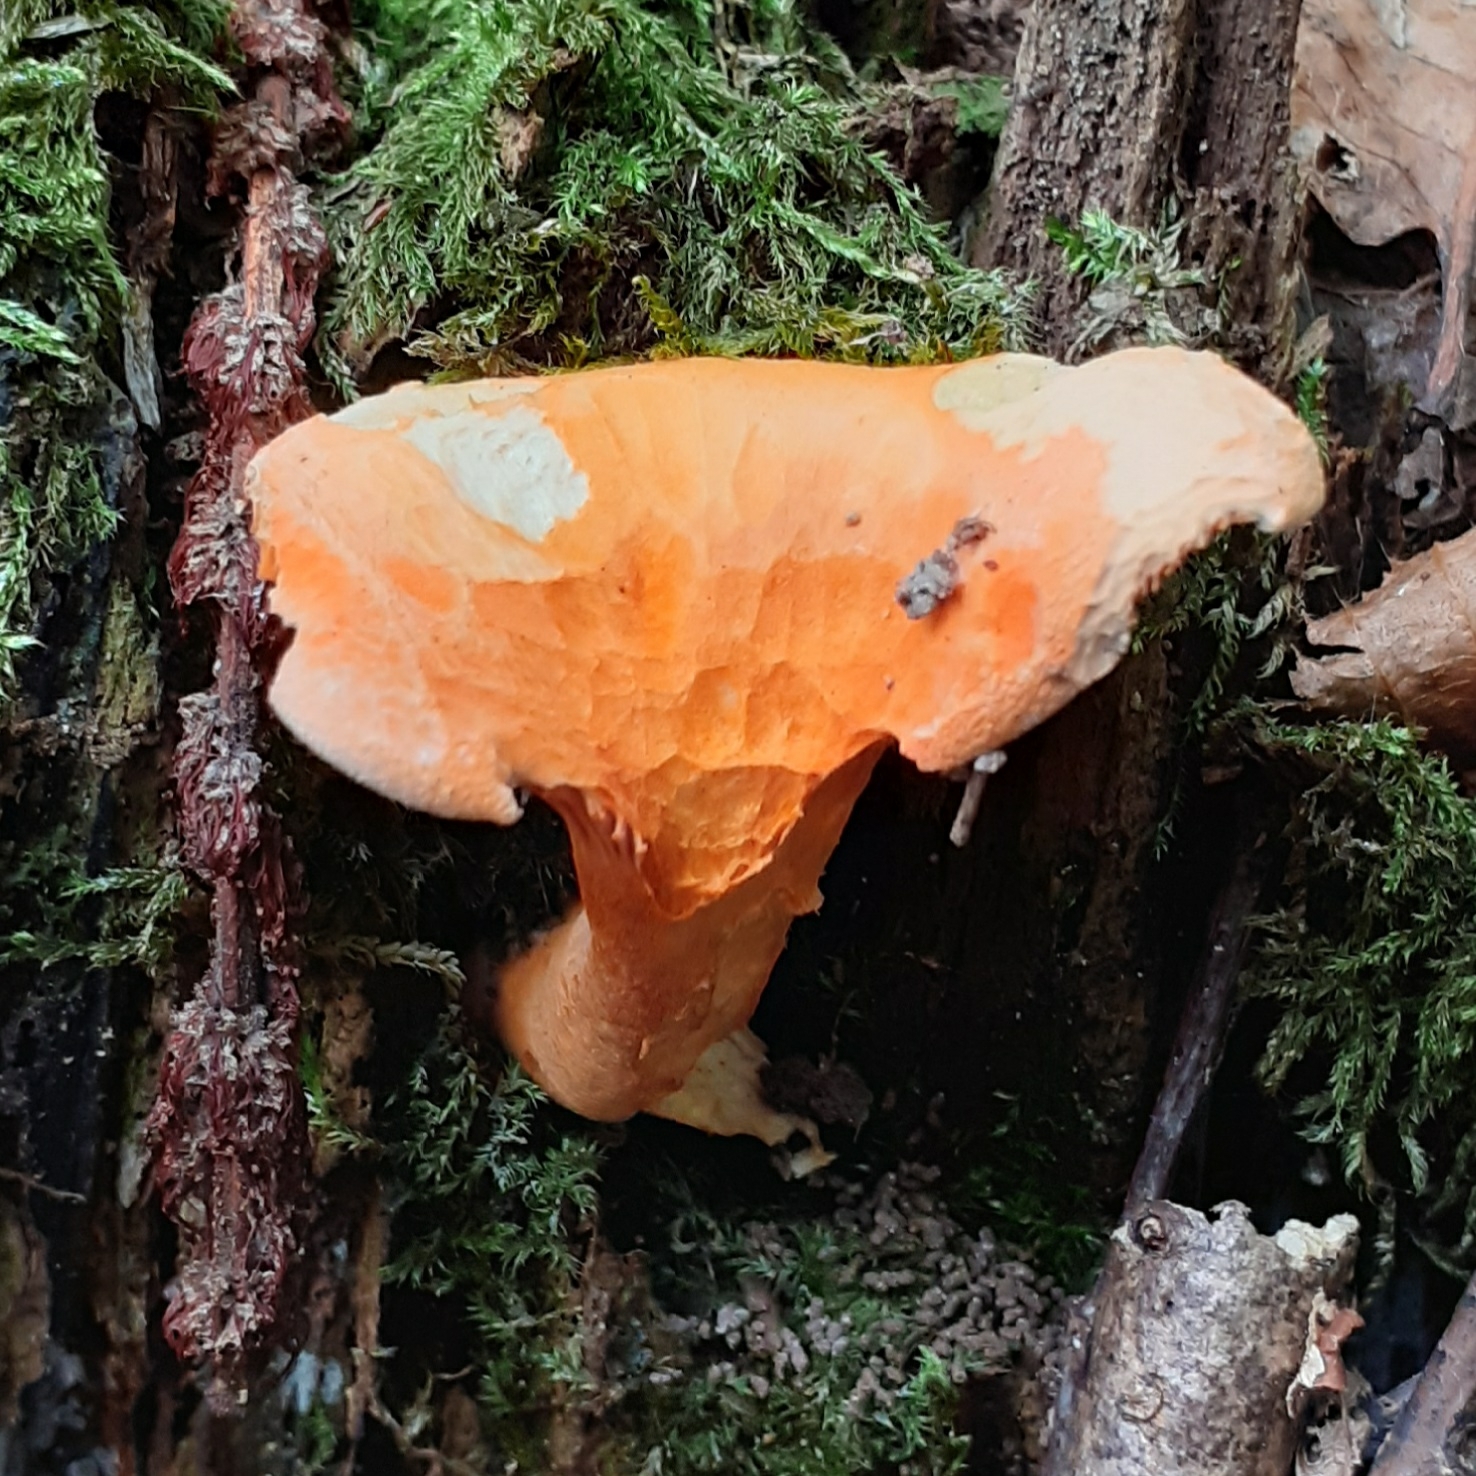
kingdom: Fungi
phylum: Basidiomycota
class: Agaricomycetes
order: Boletales
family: Hygrophoropsidaceae
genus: Hygrophoropsis
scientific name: Hygrophoropsis aurantiaca
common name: False chanterelle
